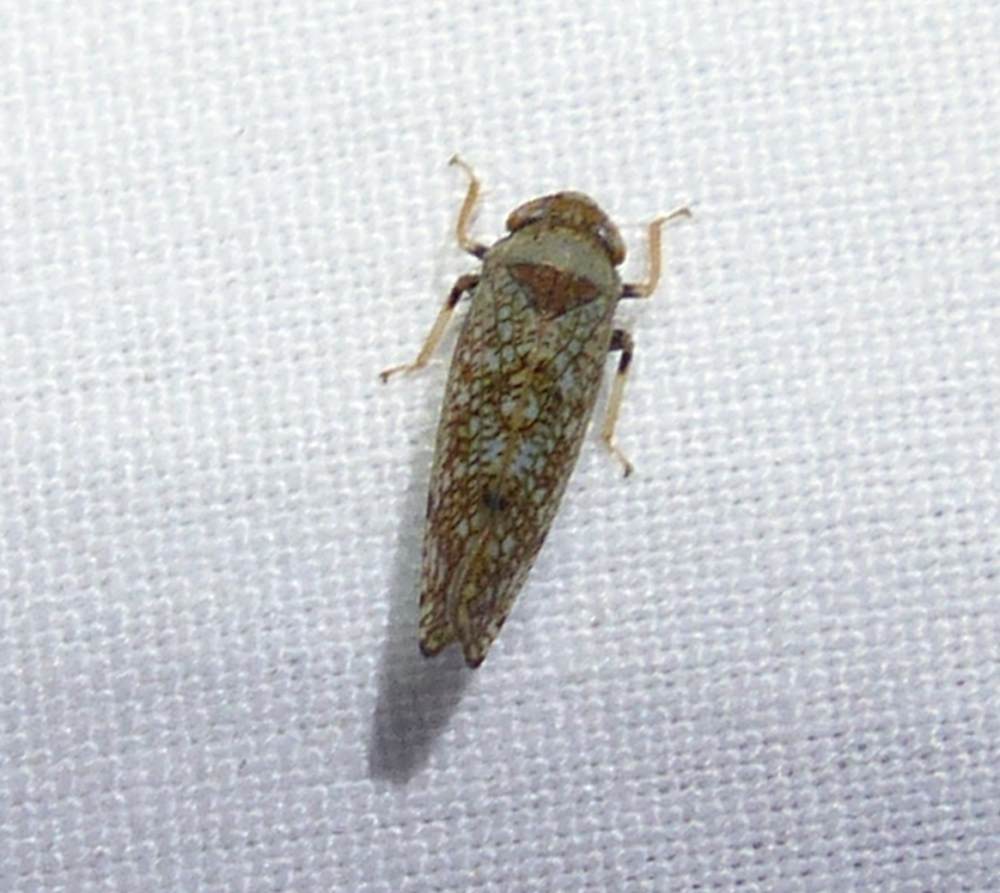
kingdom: Animalia
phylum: Arthropoda
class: Insecta
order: Hemiptera
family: Cicadellidae
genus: Orientus
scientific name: Orientus ishidae
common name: Japanese leafhopper
